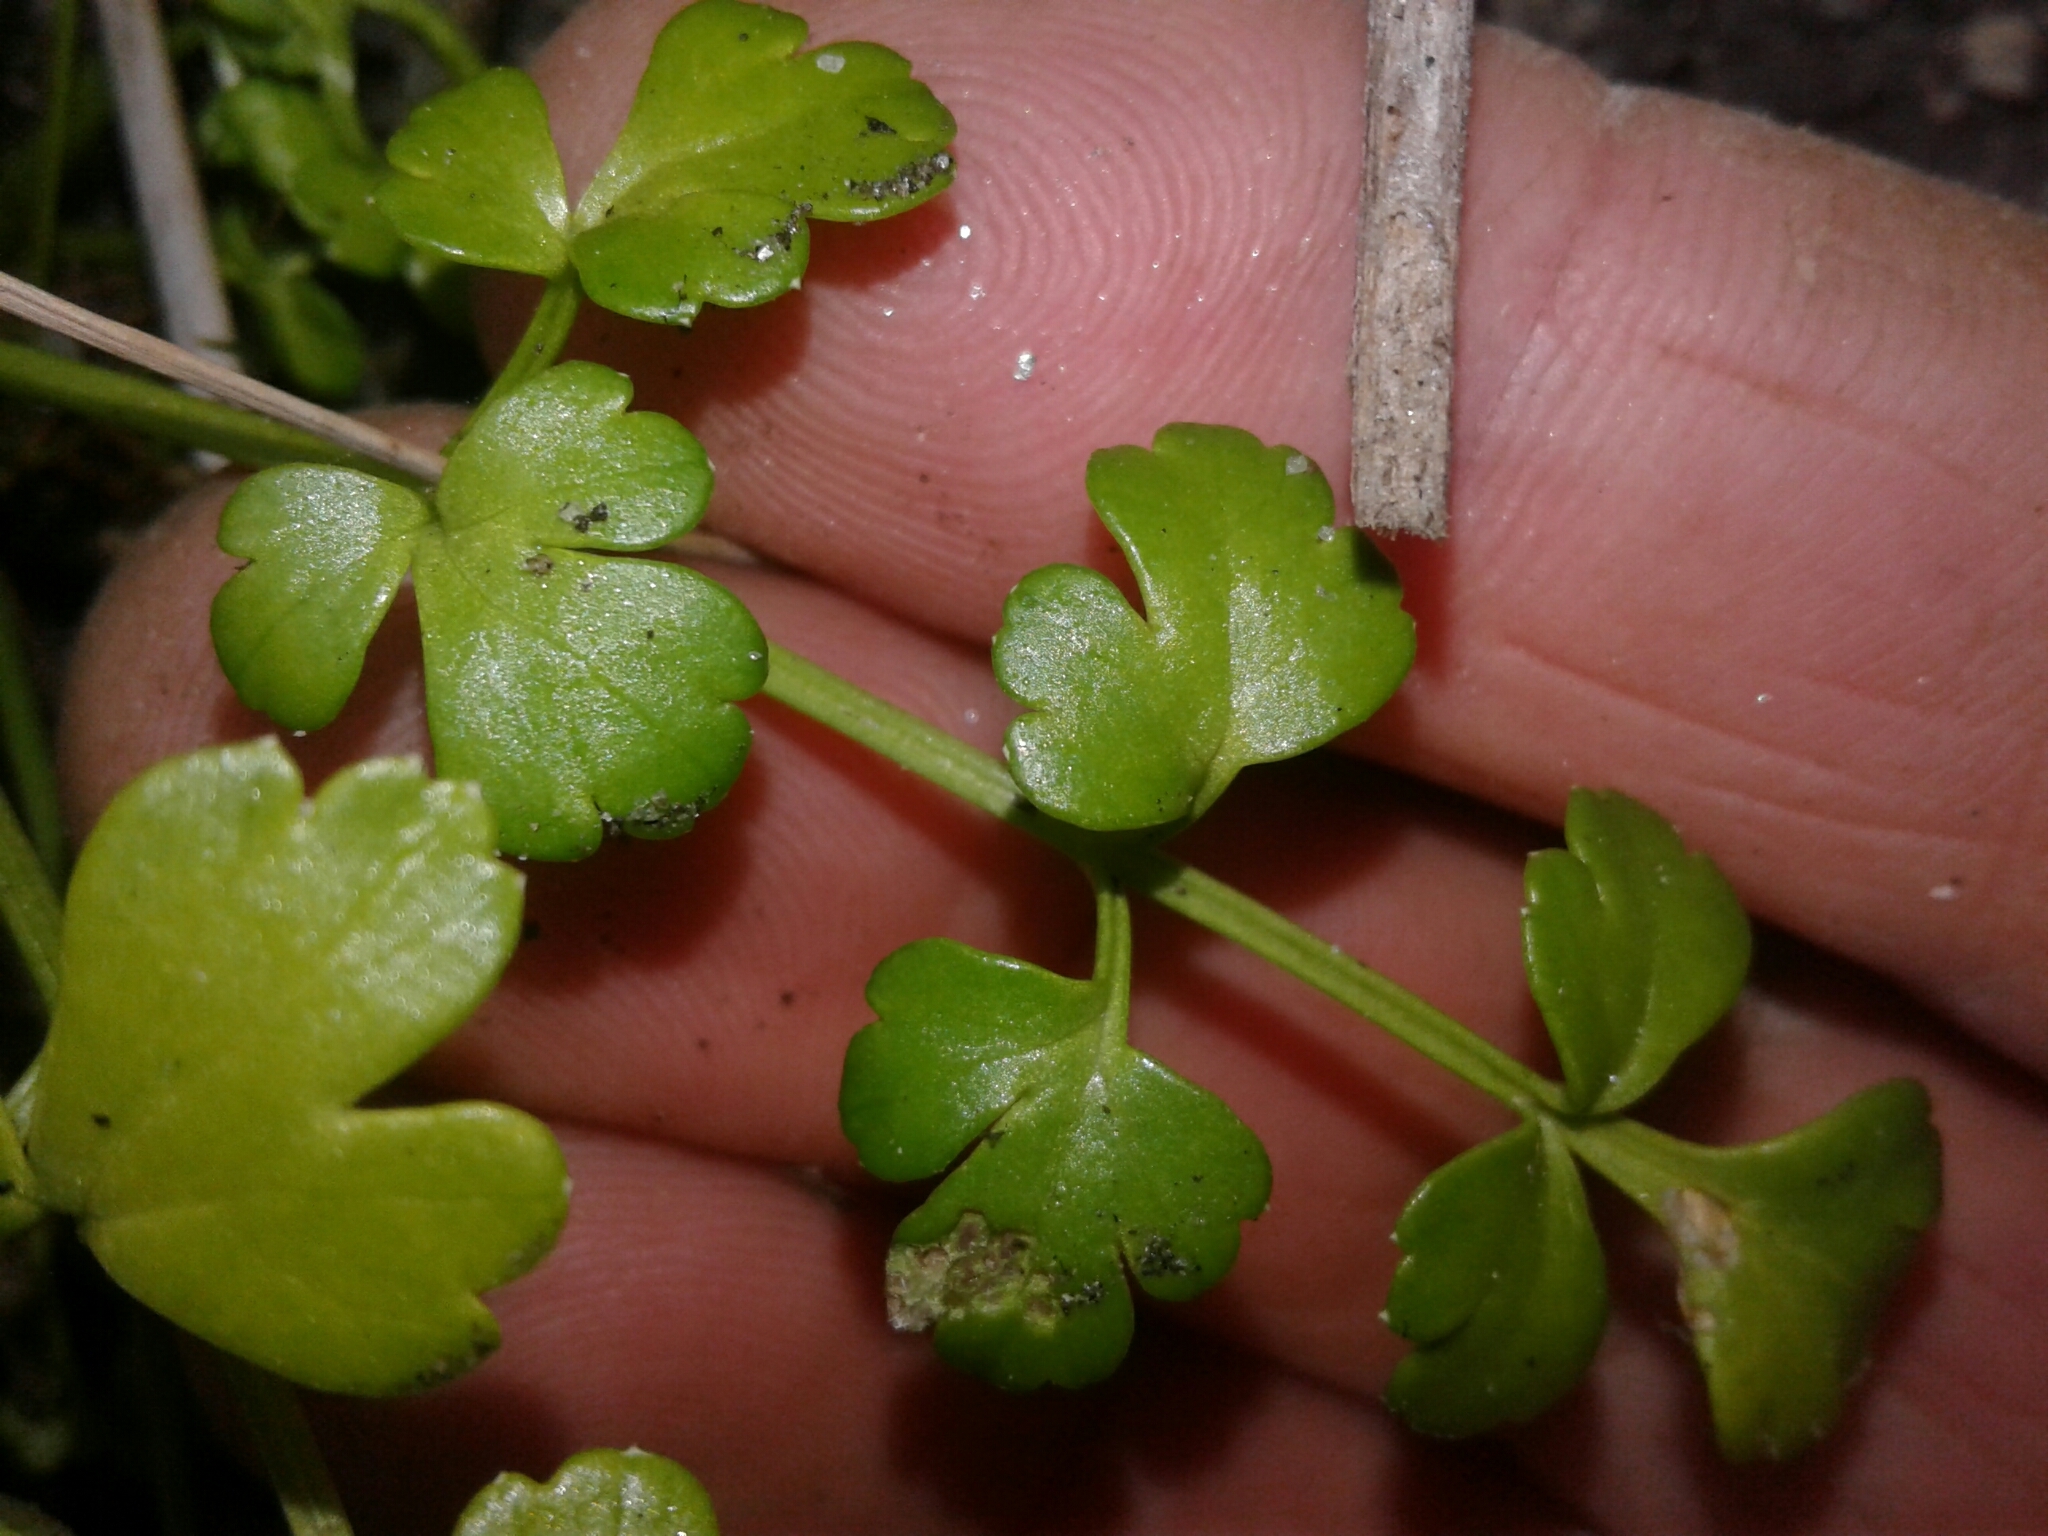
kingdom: Plantae
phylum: Tracheophyta
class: Magnoliopsida
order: Apiales
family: Apiaceae
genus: Apium
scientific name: Apium prostratum
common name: Prostrate marshwort
